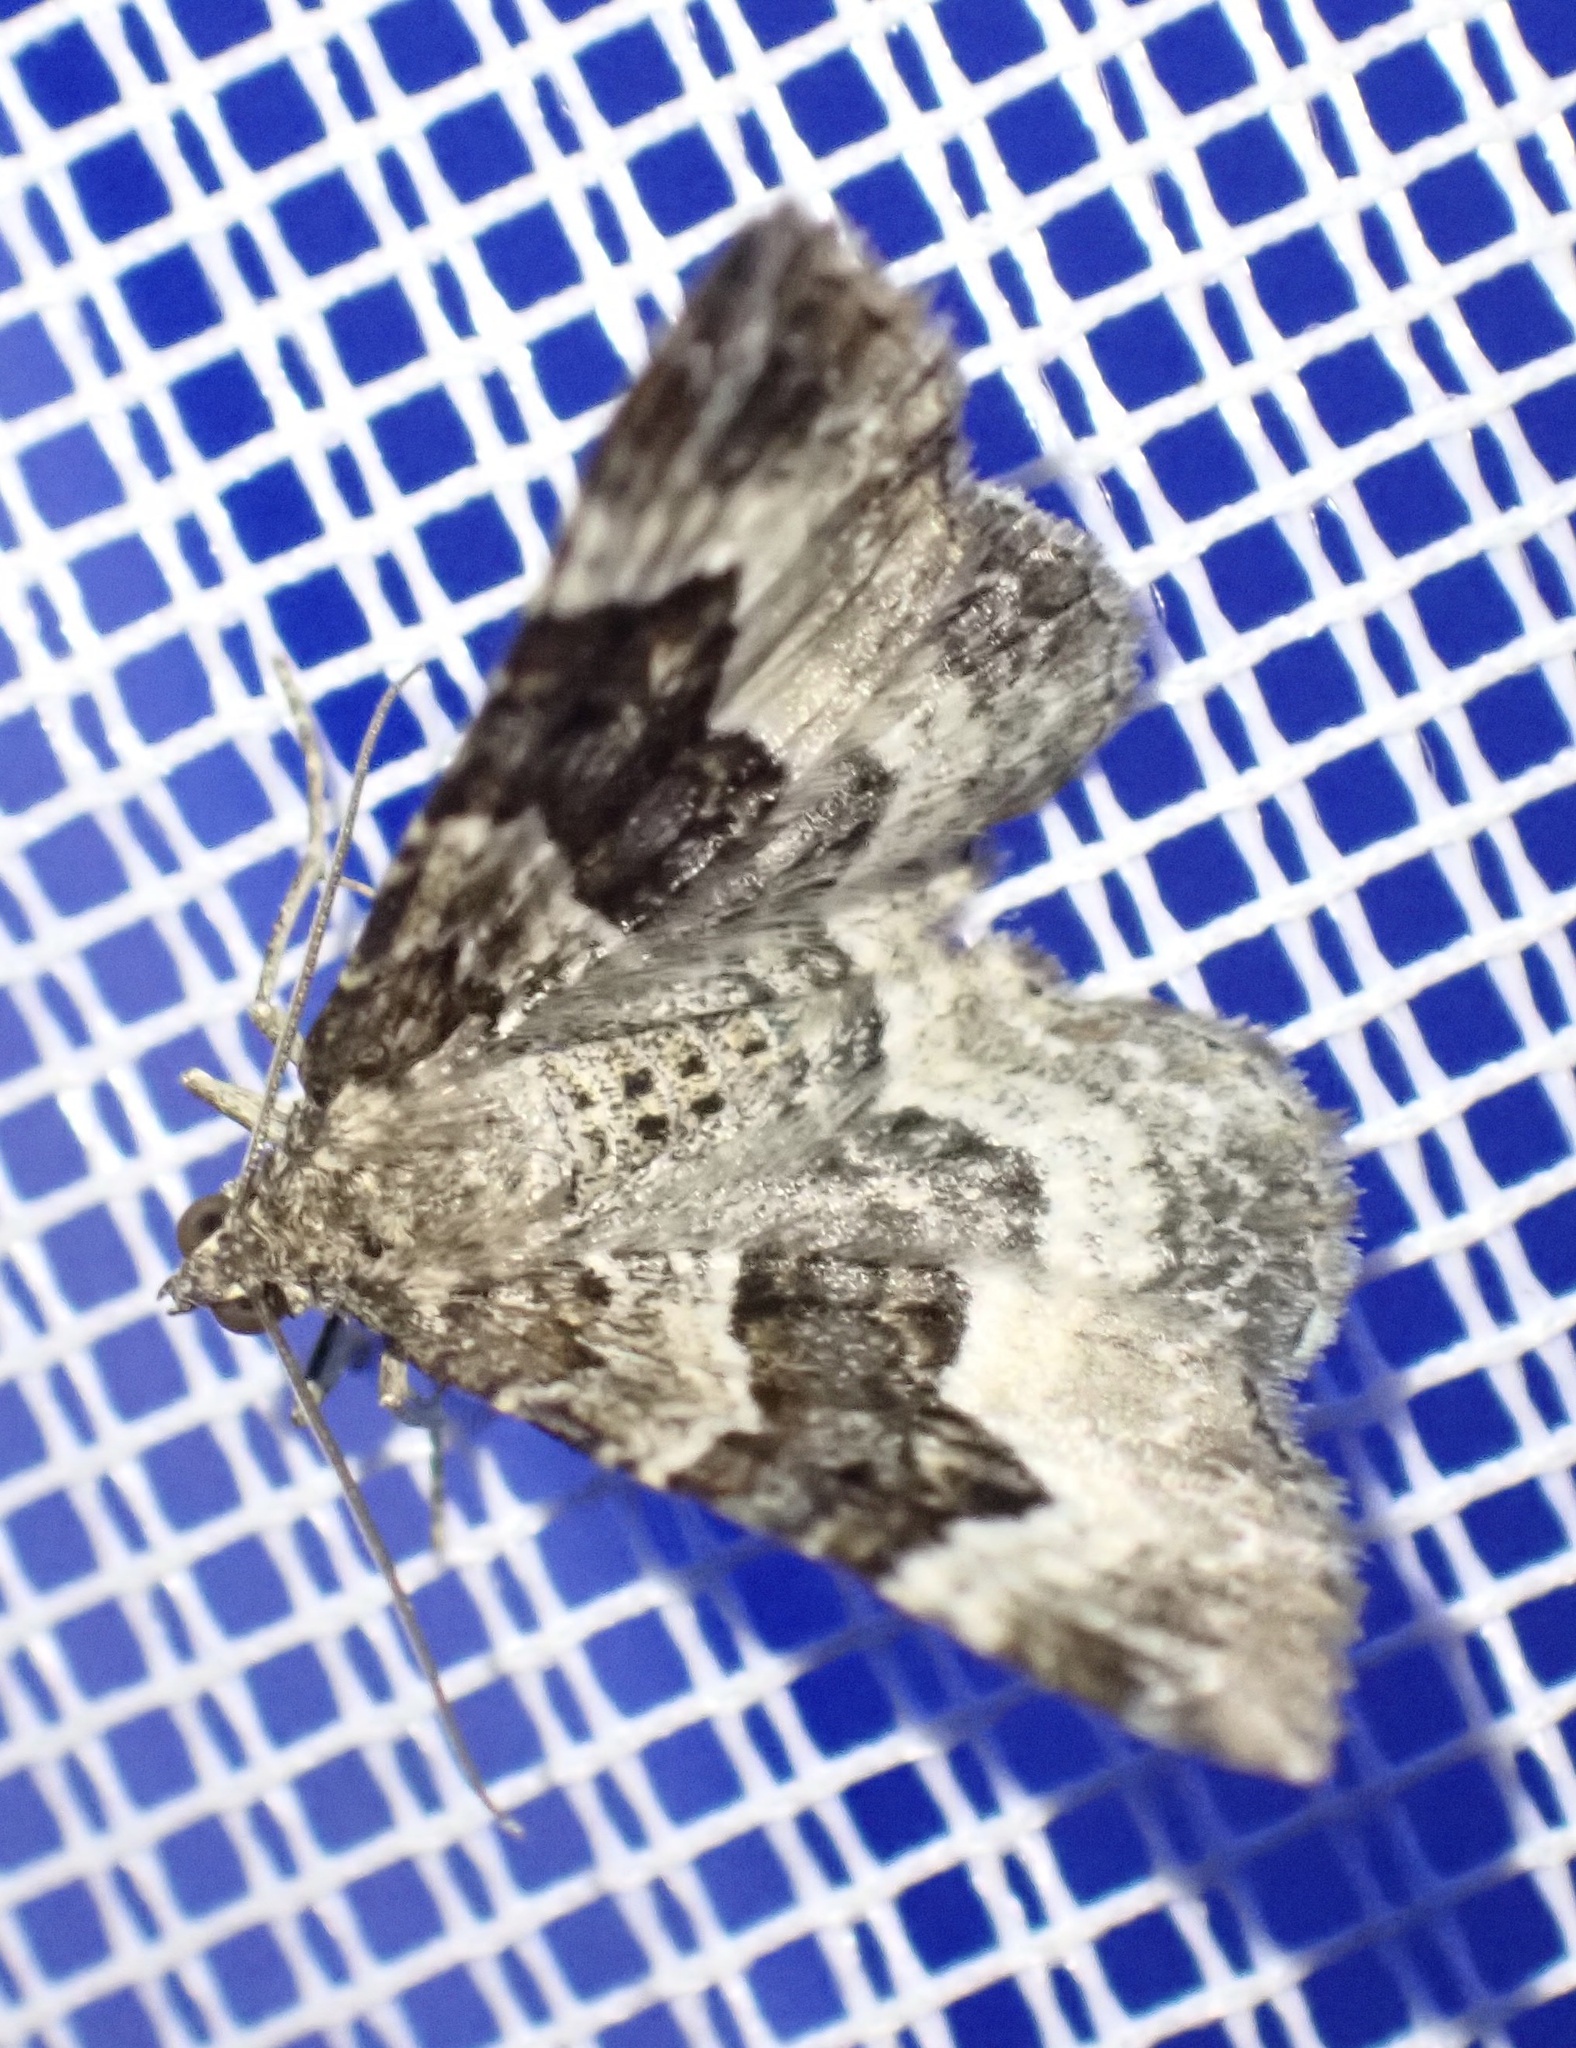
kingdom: Animalia
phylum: Arthropoda
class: Insecta
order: Lepidoptera
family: Geometridae
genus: Epirrhoe
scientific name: Epirrhoe alternata
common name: Common carpet
